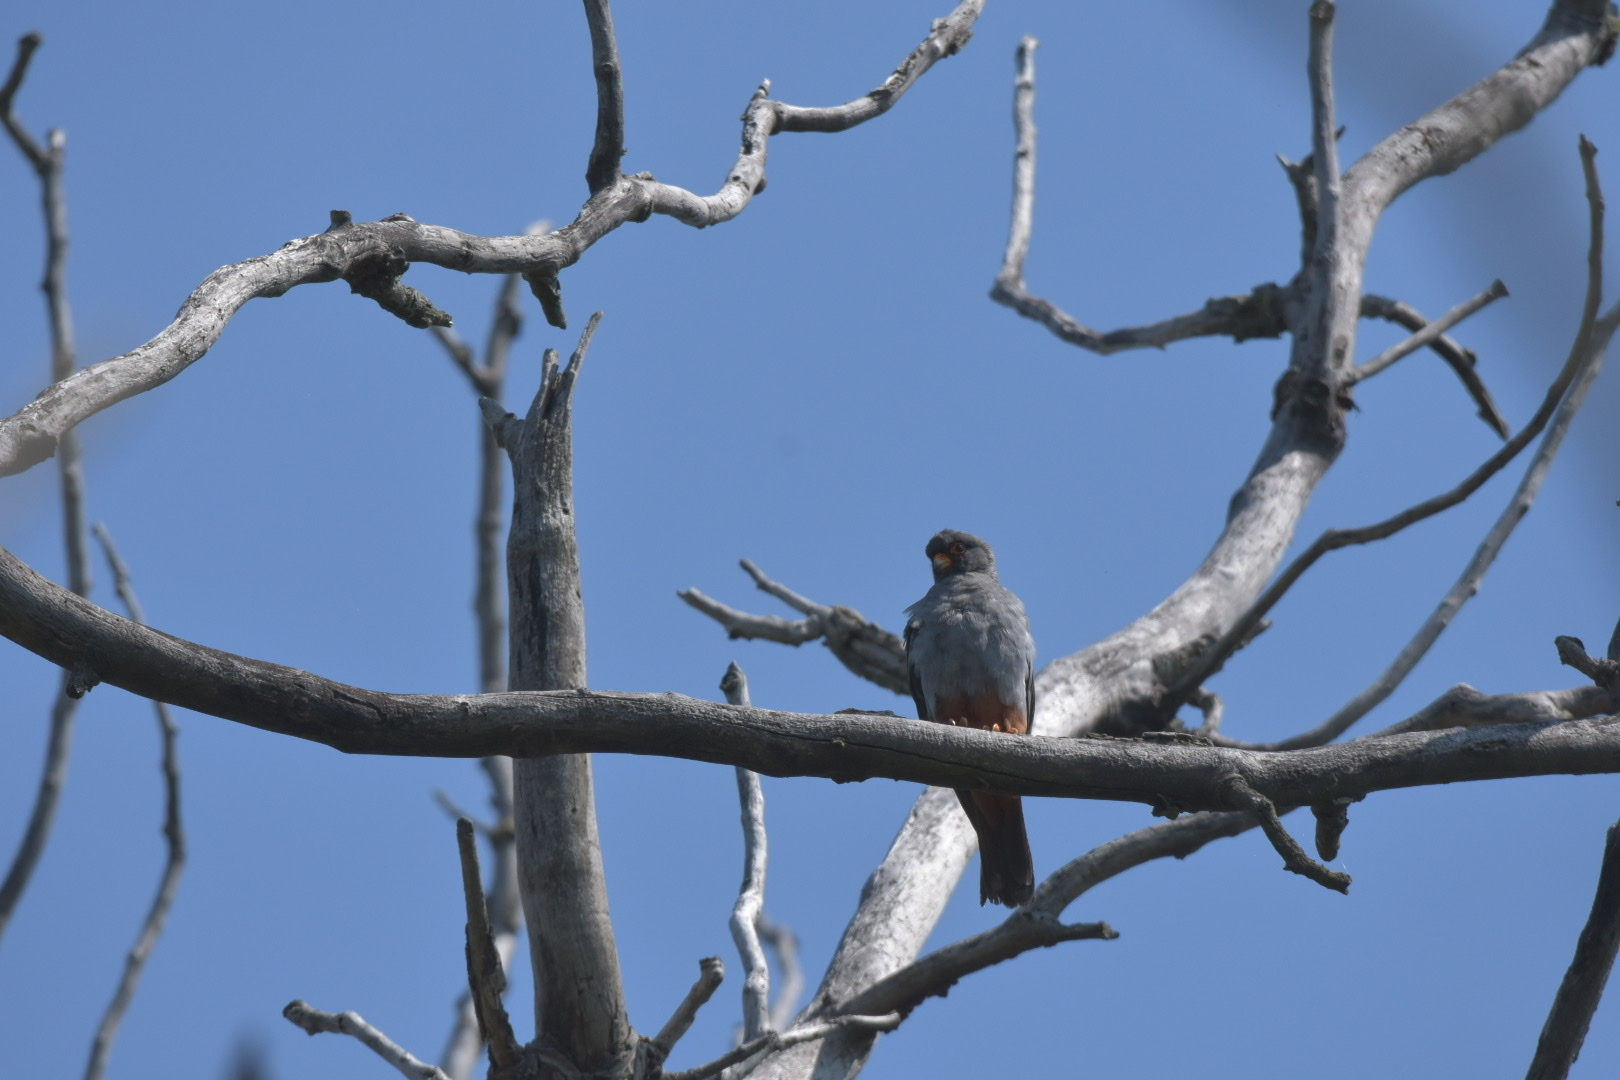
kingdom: Animalia
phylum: Chordata
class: Aves
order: Falconiformes
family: Falconidae
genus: Falco
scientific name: Falco vespertinus
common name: Red-footed falcon
